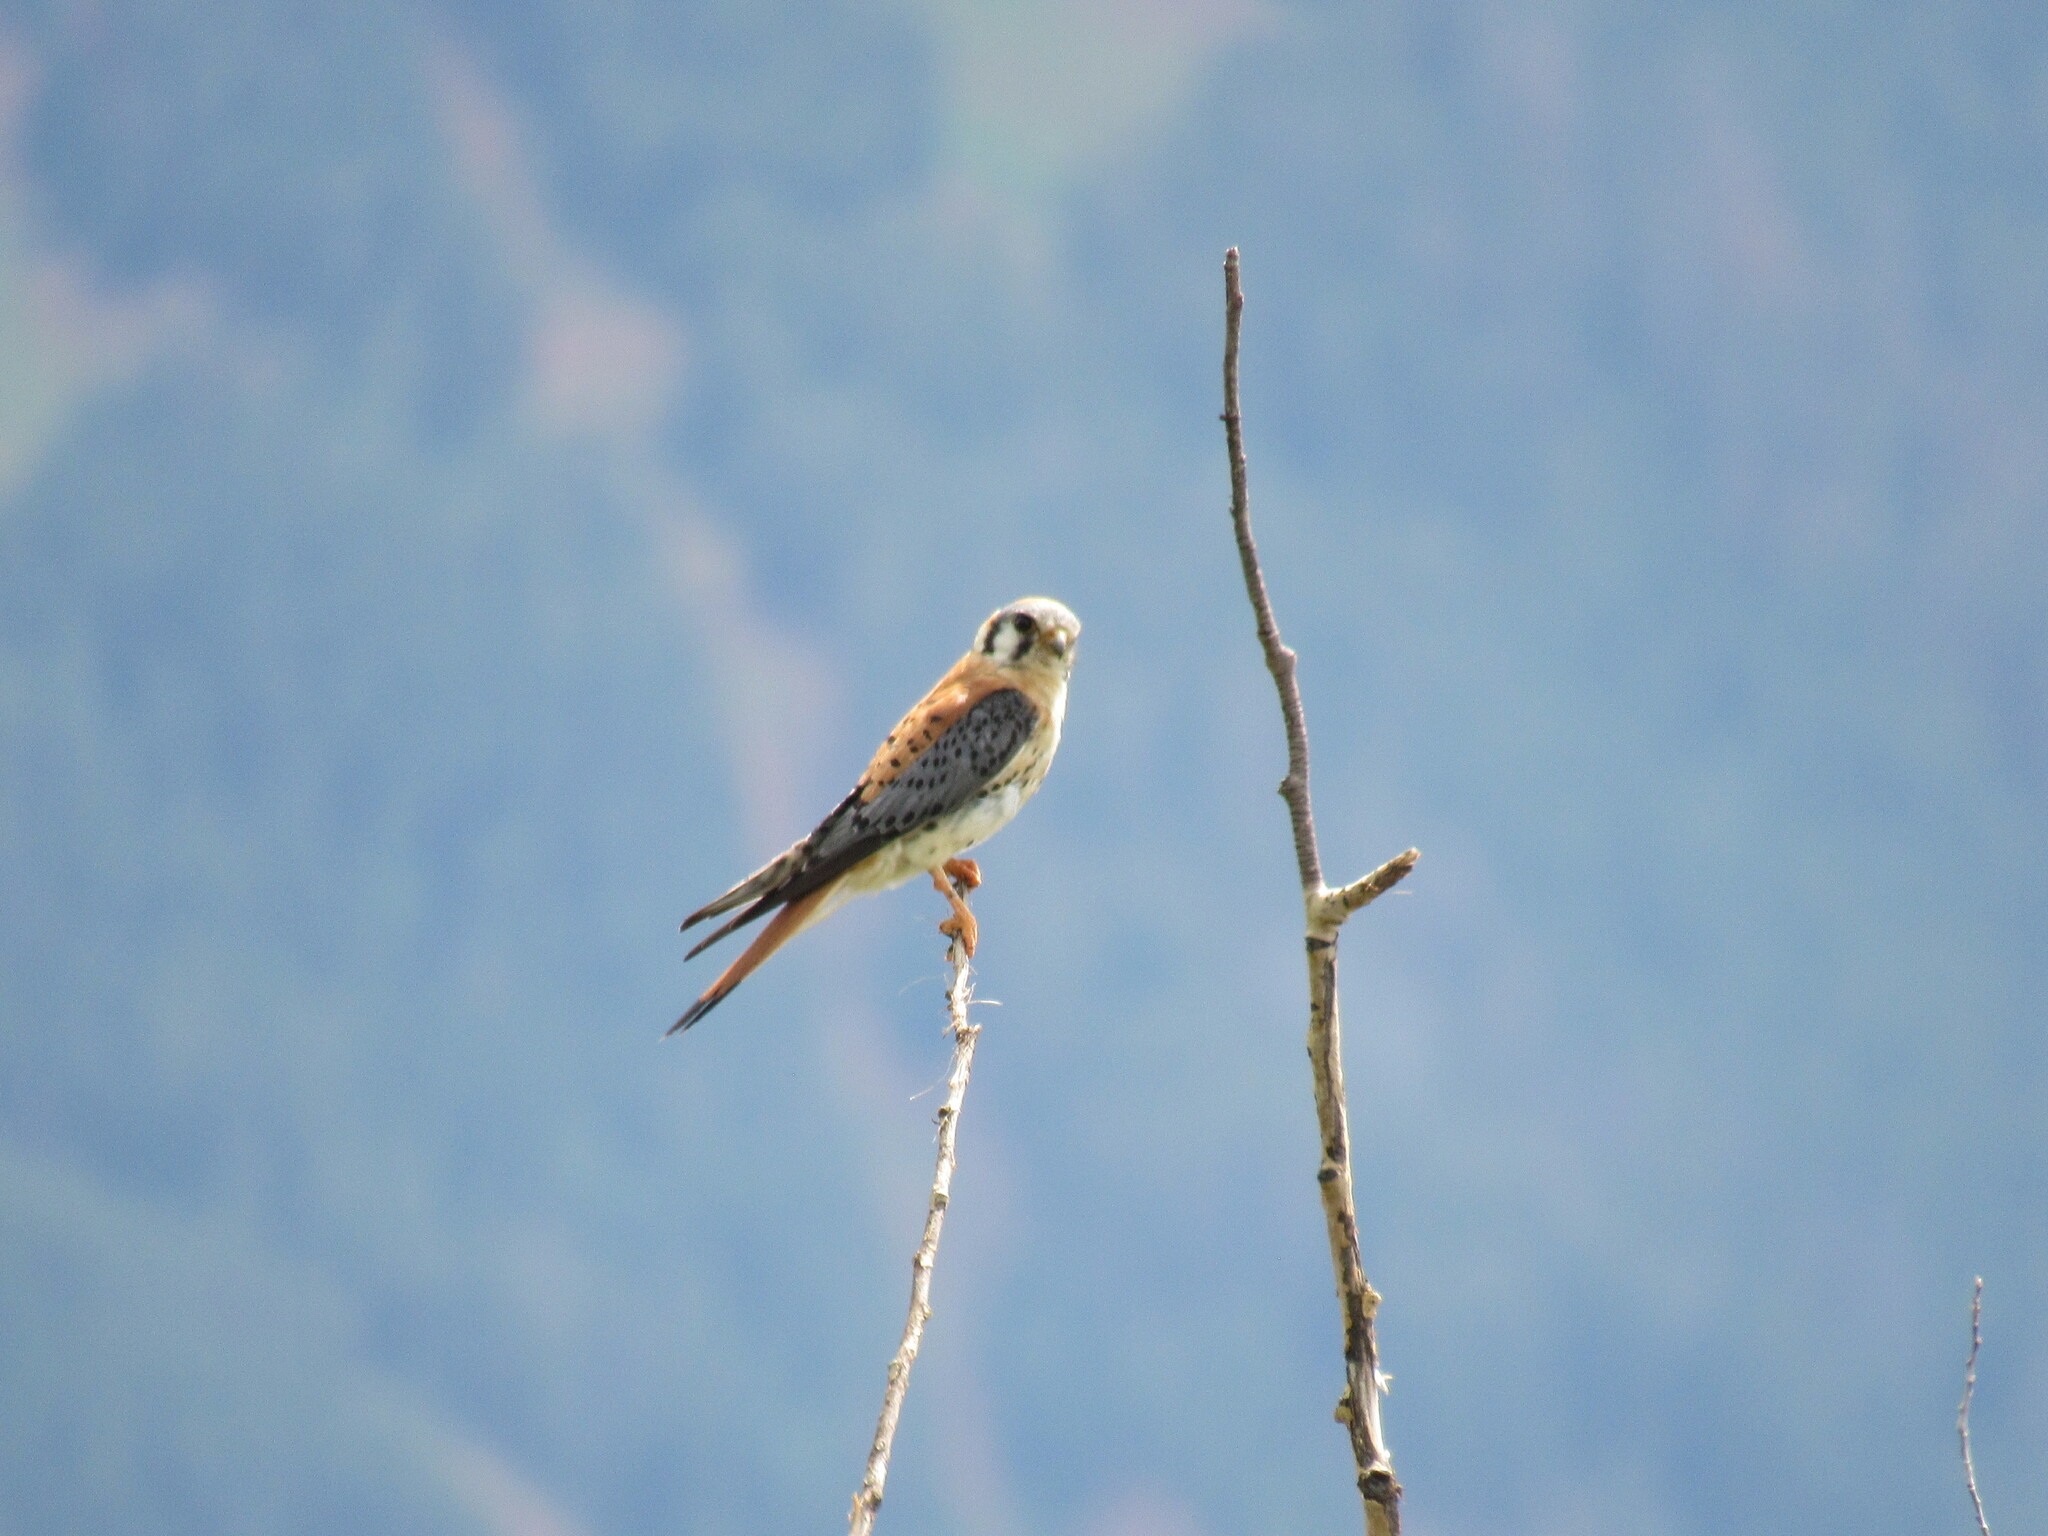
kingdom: Animalia
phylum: Chordata
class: Aves
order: Falconiformes
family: Falconidae
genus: Falco
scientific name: Falco sparverius
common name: American kestrel
